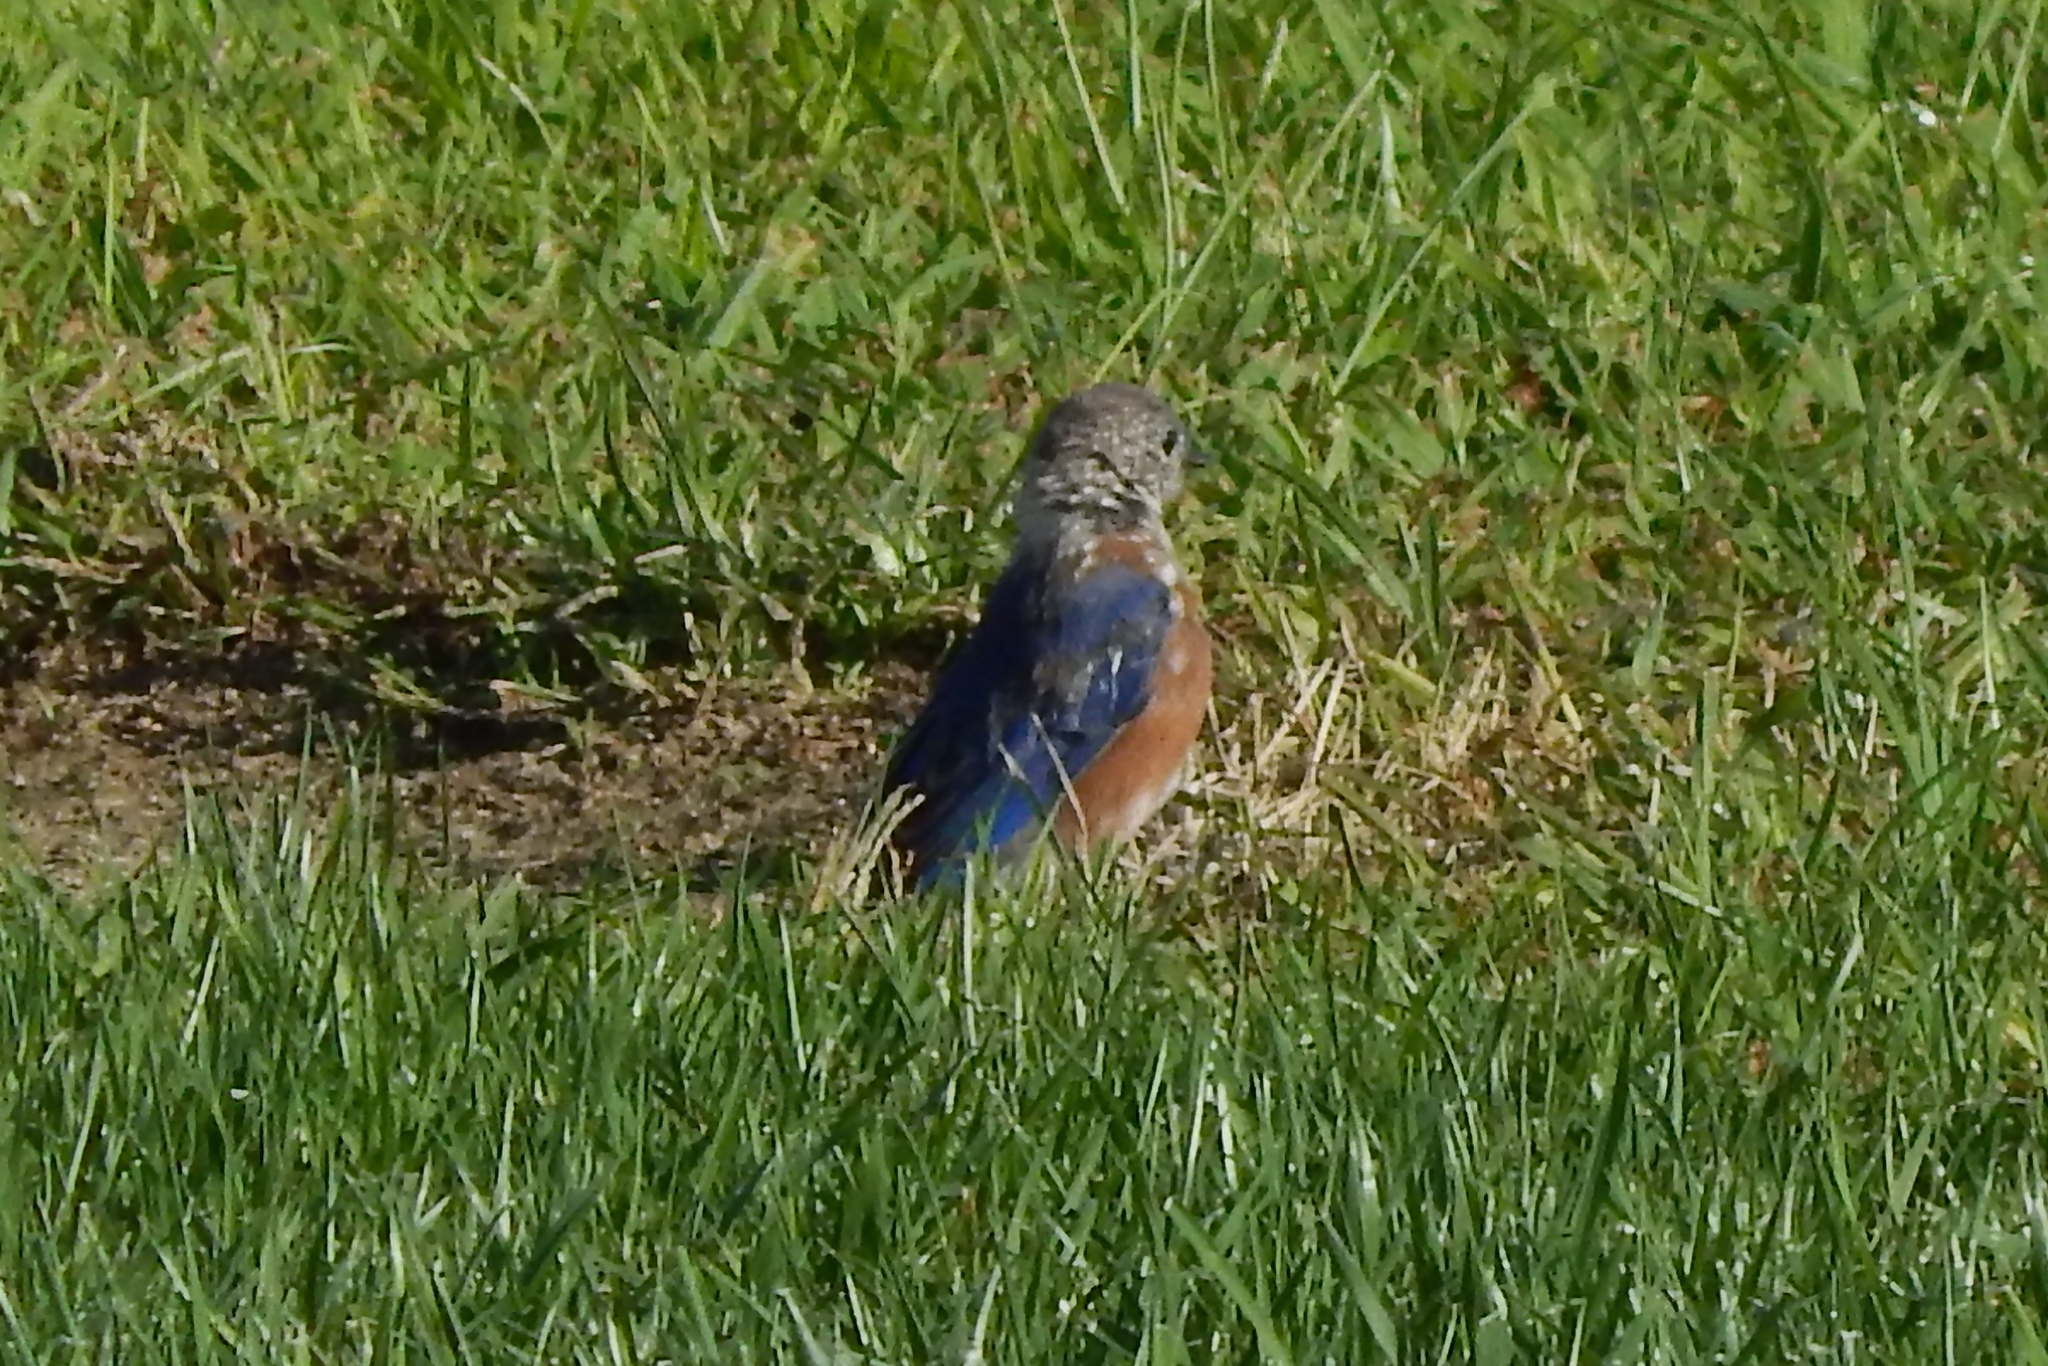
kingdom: Animalia
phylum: Chordata
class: Aves
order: Passeriformes
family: Turdidae
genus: Sialia
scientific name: Sialia sialis
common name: Eastern bluebird
